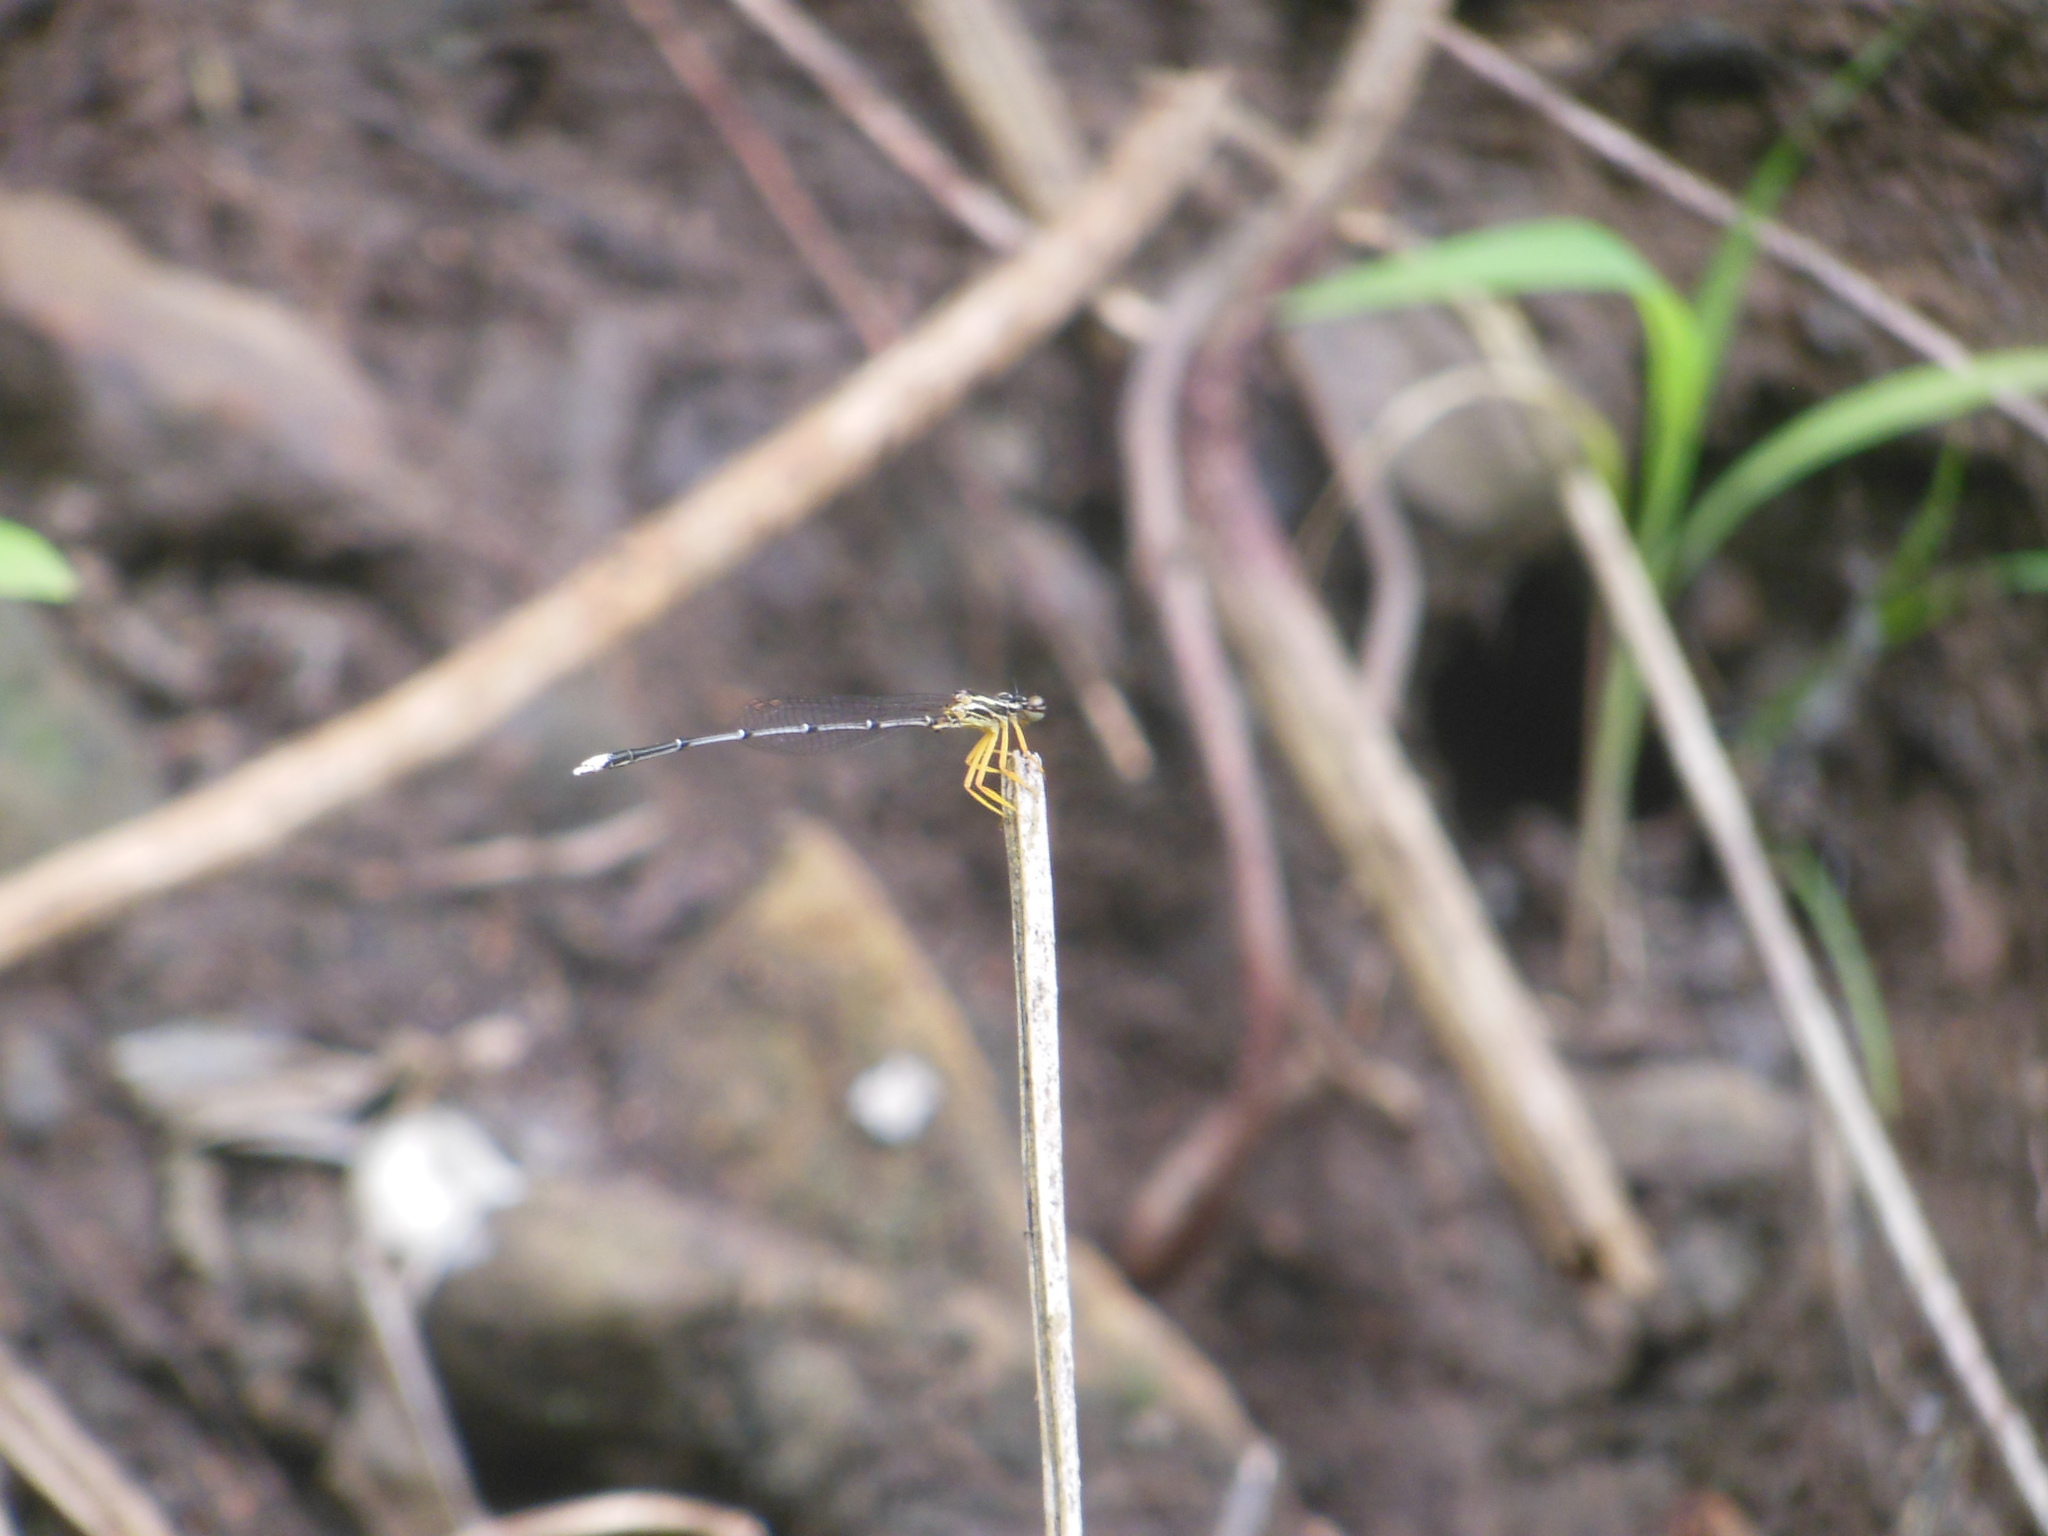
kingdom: Animalia
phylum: Arthropoda
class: Insecta
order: Odonata
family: Platycnemididae
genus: Copera
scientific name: Copera marginipes
